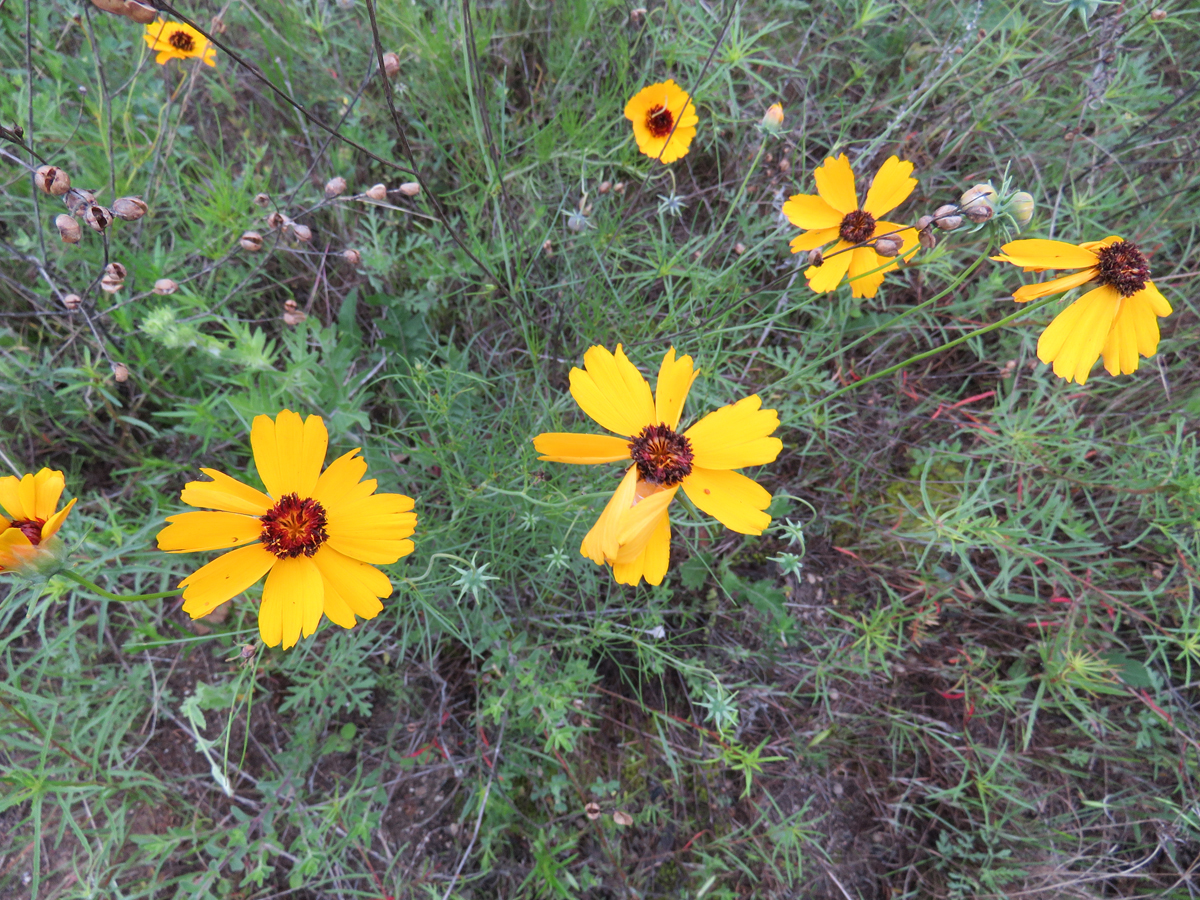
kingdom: Plantae
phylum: Tracheophyta
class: Magnoliopsida
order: Asterales
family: Asteraceae
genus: Thelesperma
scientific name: Thelesperma filifolium
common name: Stiff greenthread
